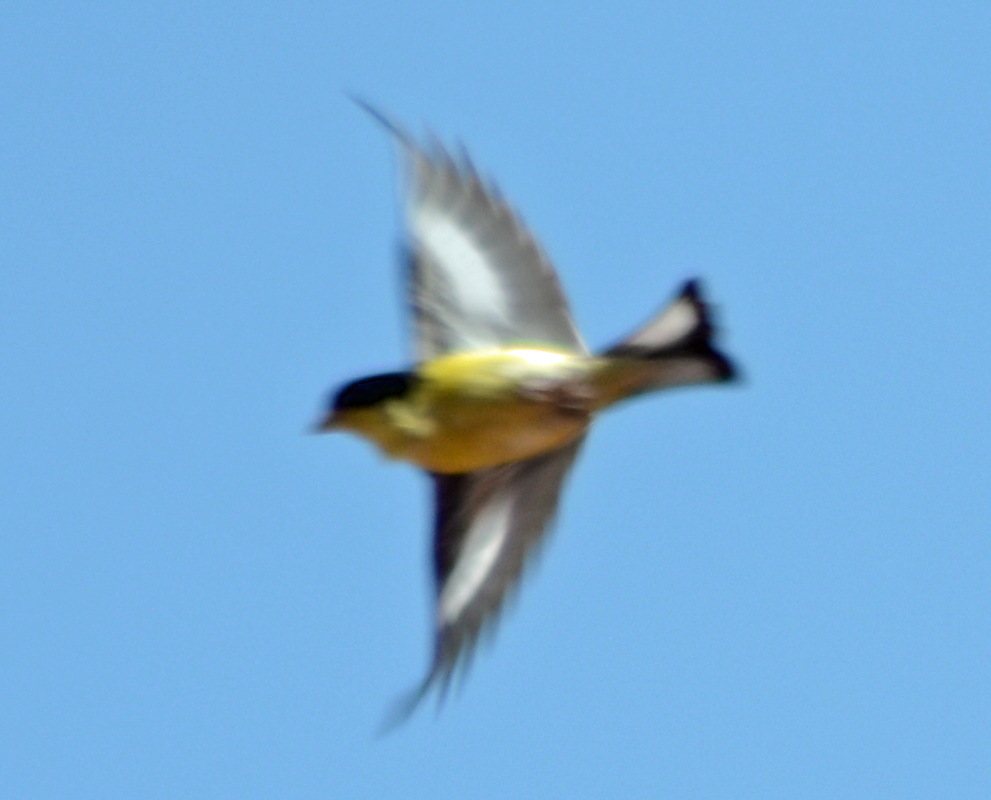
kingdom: Animalia
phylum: Chordata
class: Aves
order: Passeriformes
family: Fringillidae
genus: Spinus
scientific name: Spinus psaltria
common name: Lesser goldfinch
